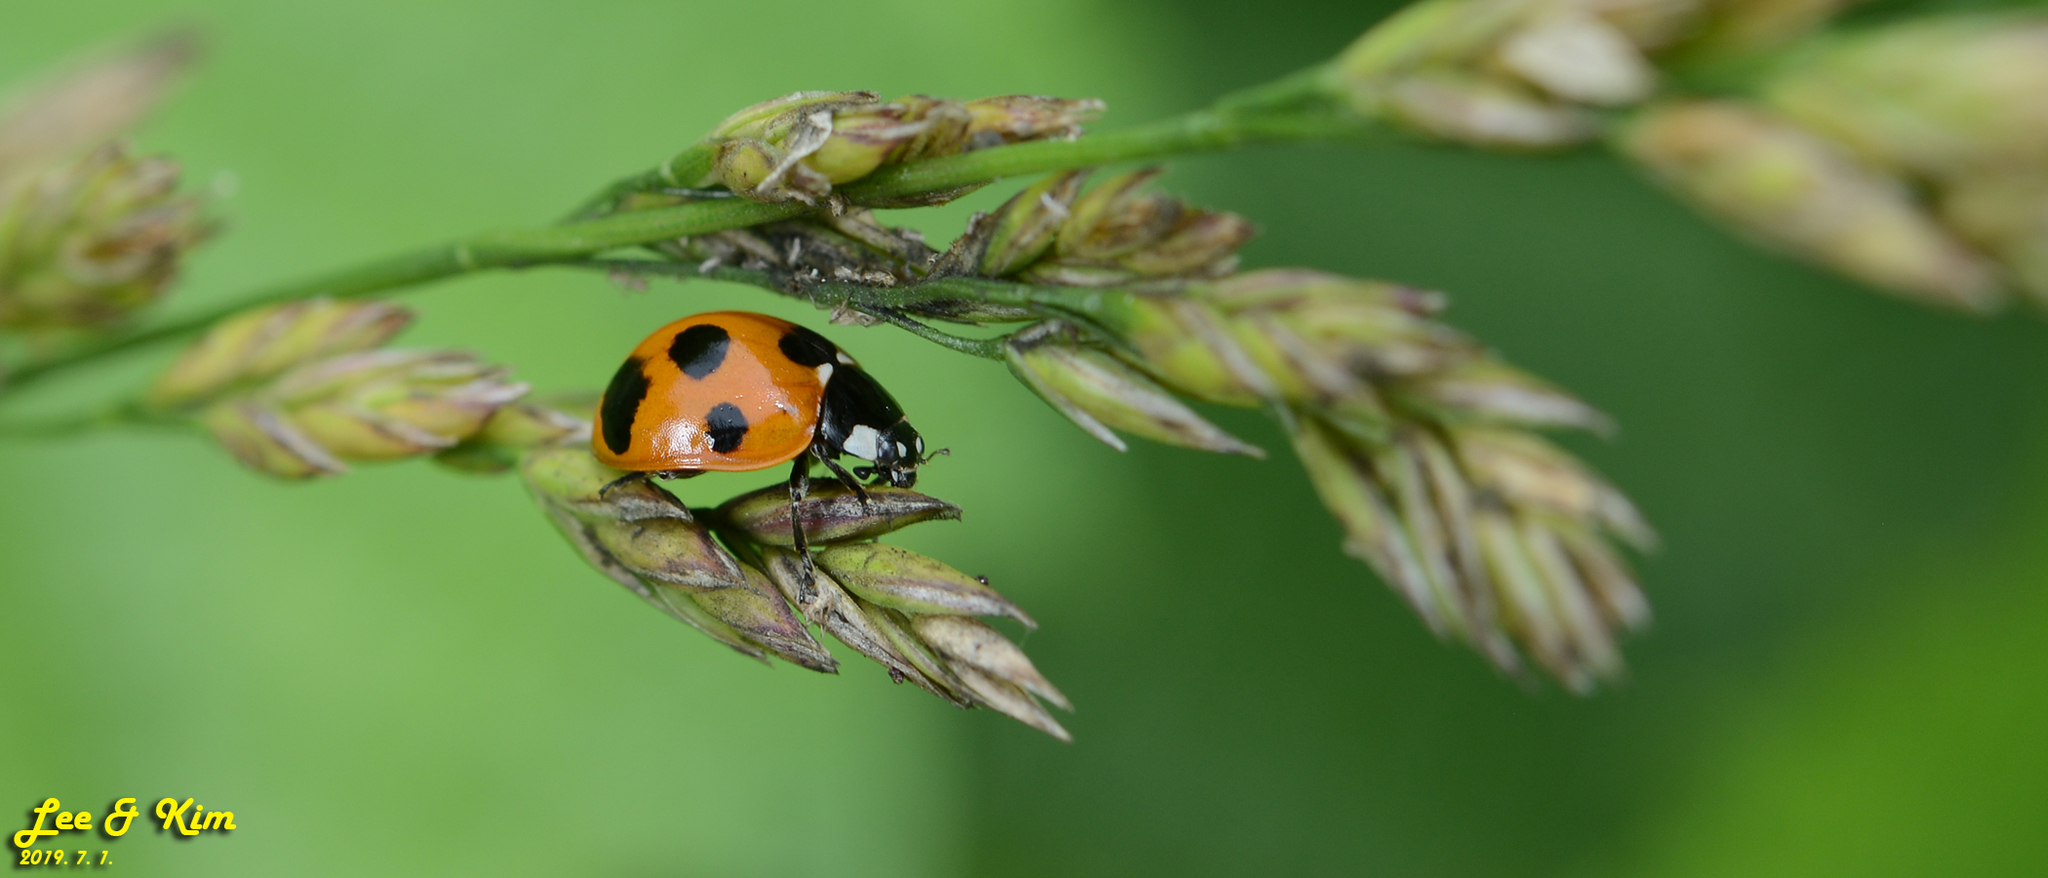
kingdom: Animalia
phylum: Arthropoda
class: Insecta
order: Coleoptera
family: Coccinellidae
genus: Coccinella
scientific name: Coccinella septempunctata
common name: Sevenspotted lady beetle
